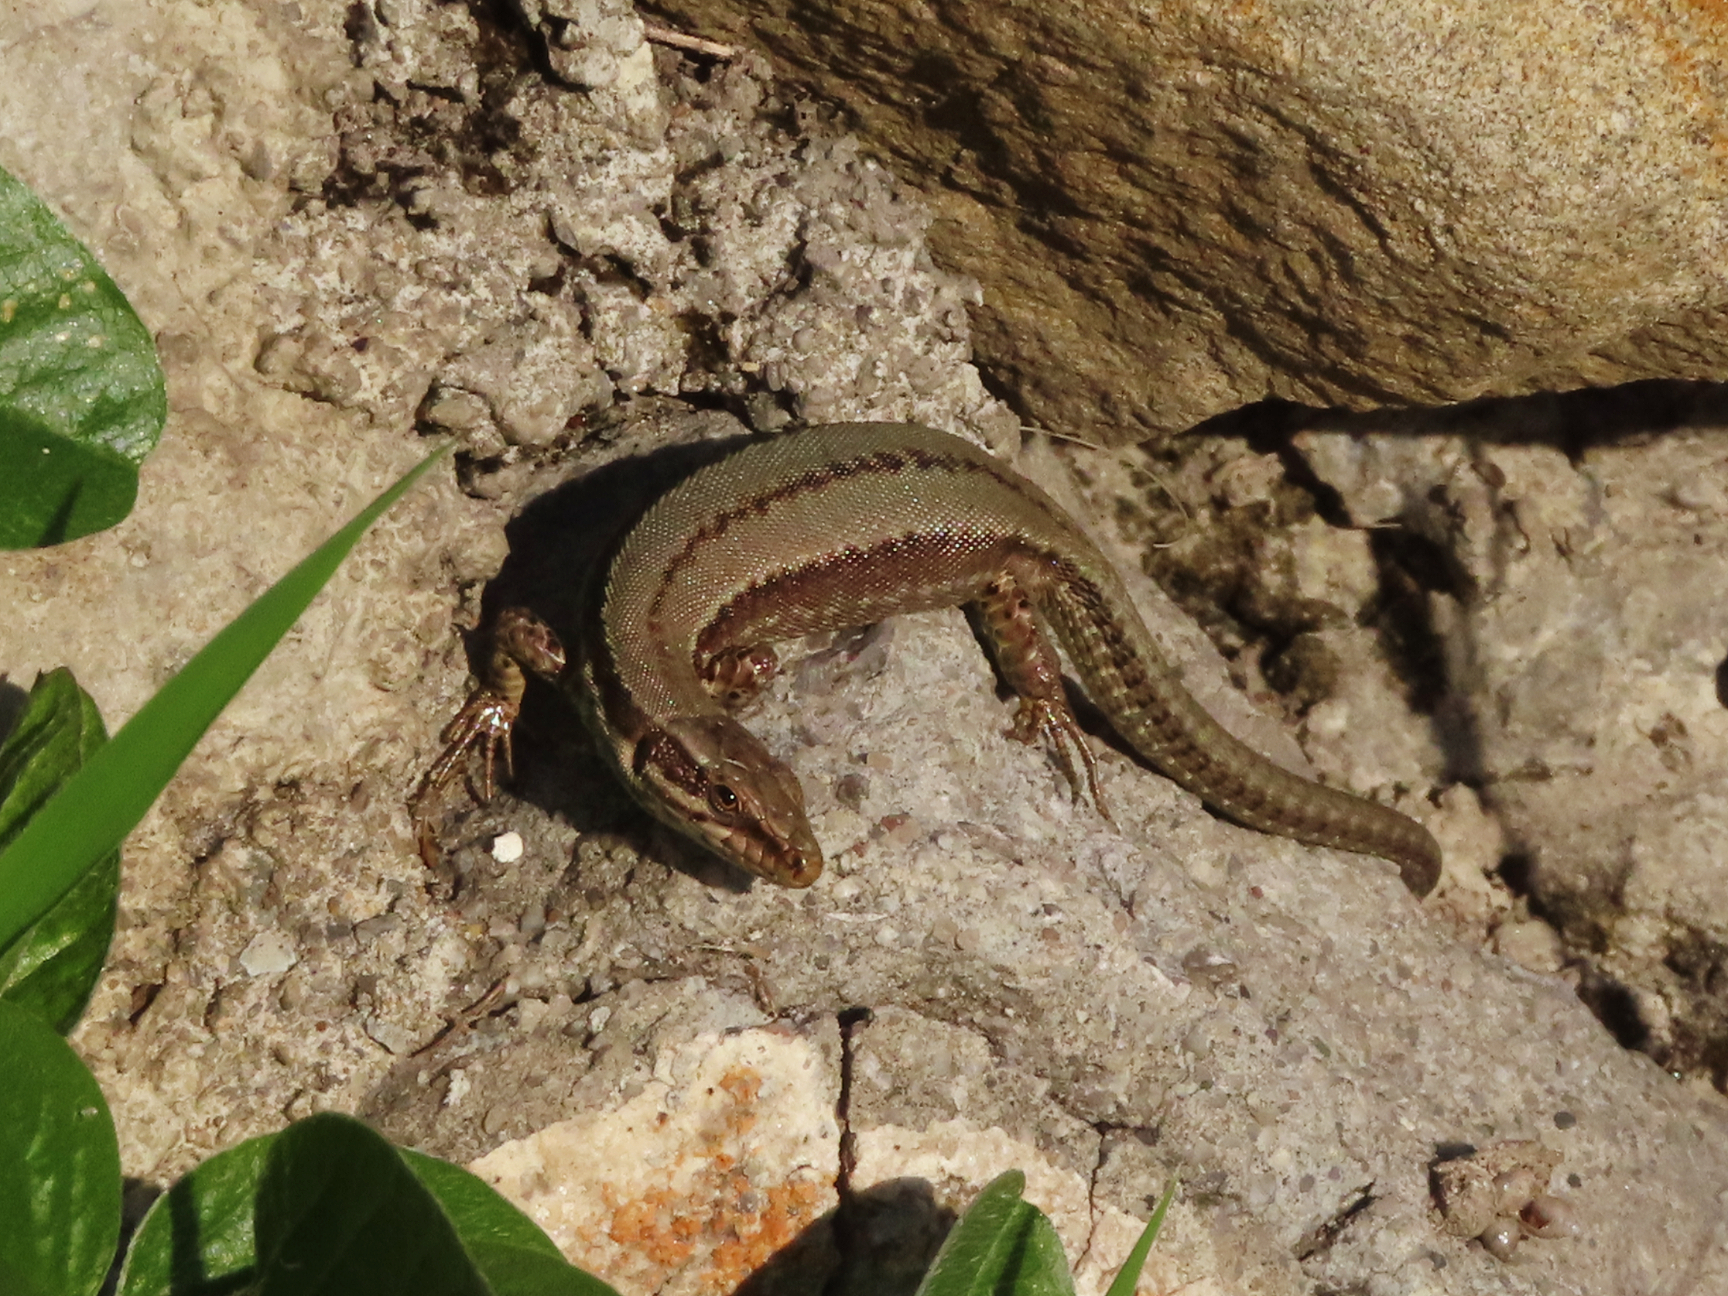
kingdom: Animalia
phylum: Chordata
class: Squamata
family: Lacertidae
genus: Podarcis
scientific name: Podarcis muralis
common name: Common wall lizard
